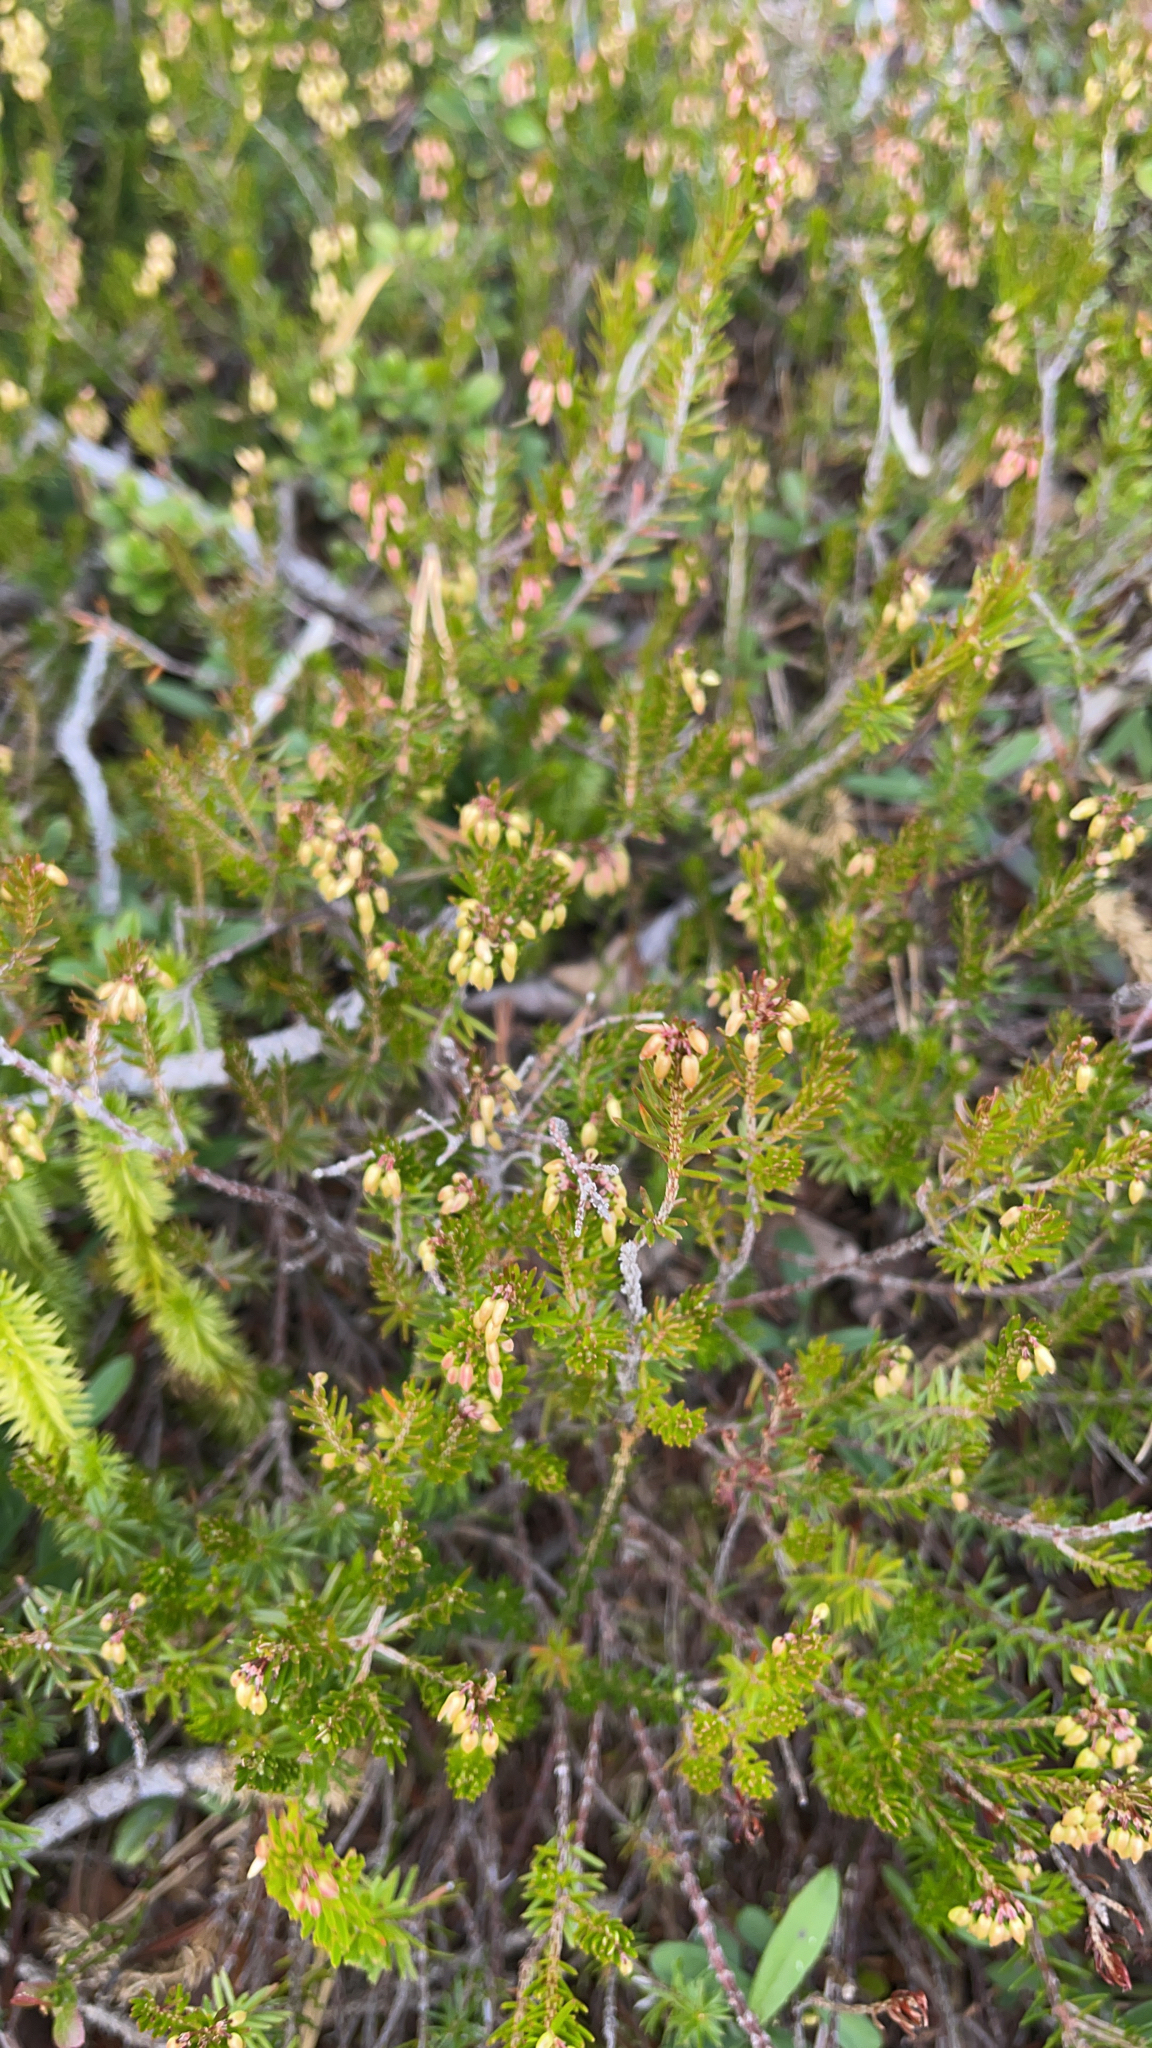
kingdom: Plantae
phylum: Tracheophyta
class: Magnoliopsida
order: Ericales
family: Ericaceae
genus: Erica
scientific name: Erica carnea
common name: Winter heath
